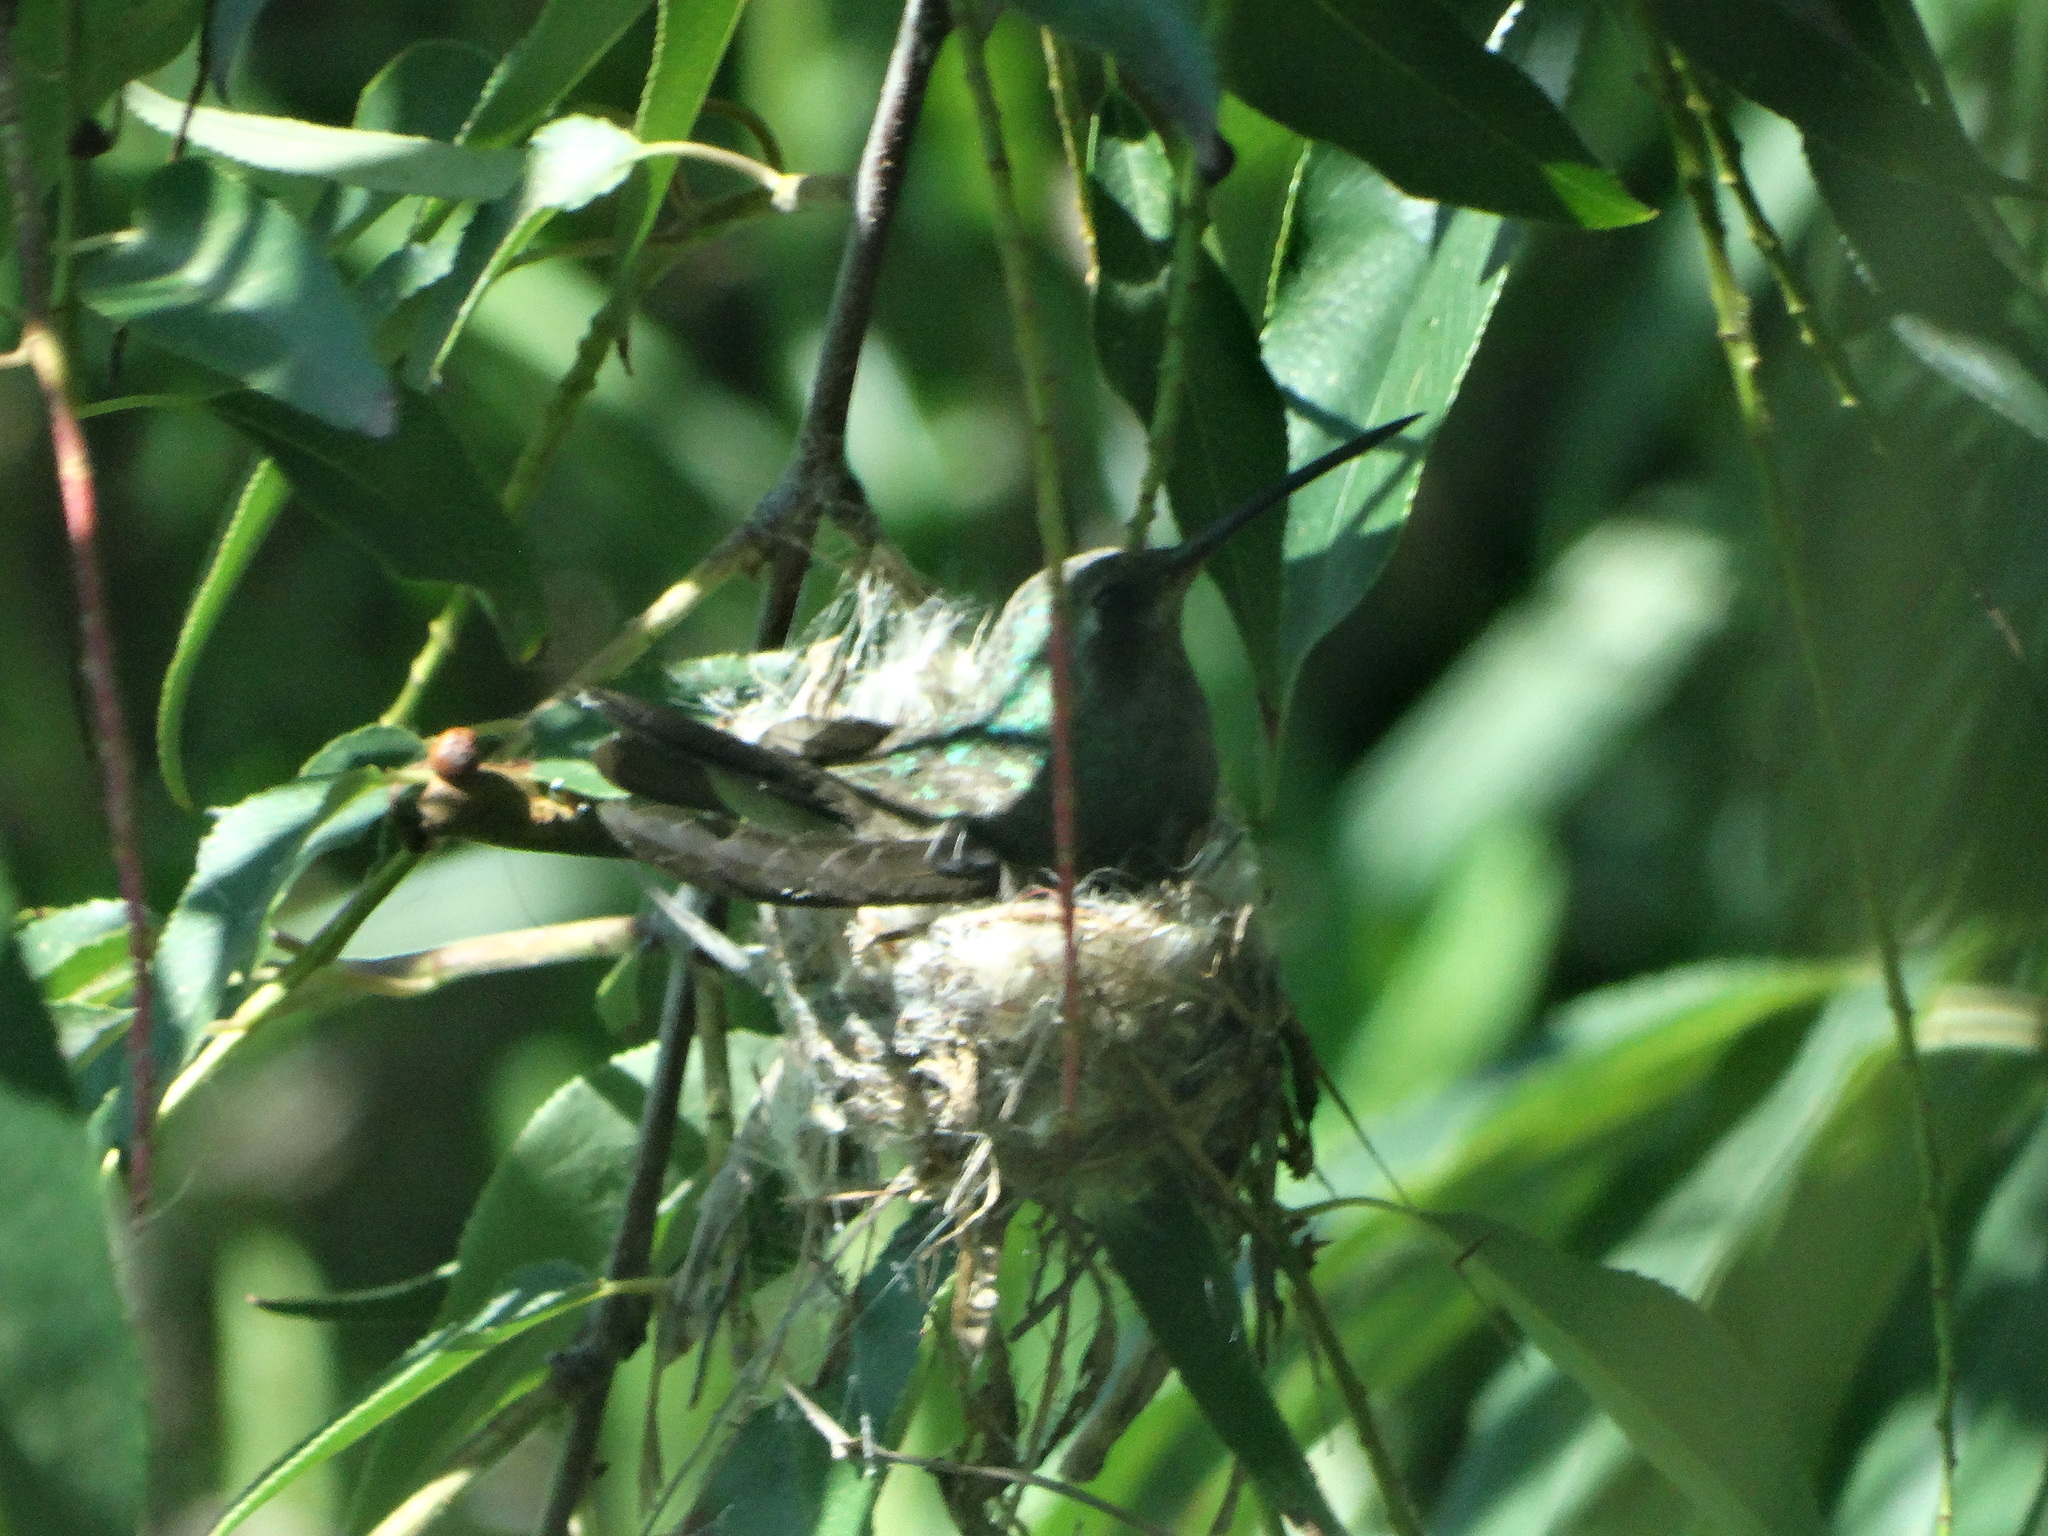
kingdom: Animalia
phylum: Chordata
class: Aves
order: Apodiformes
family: Trochilidae
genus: Cynanthus
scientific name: Cynanthus latirostris
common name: Broad-billed hummingbird
